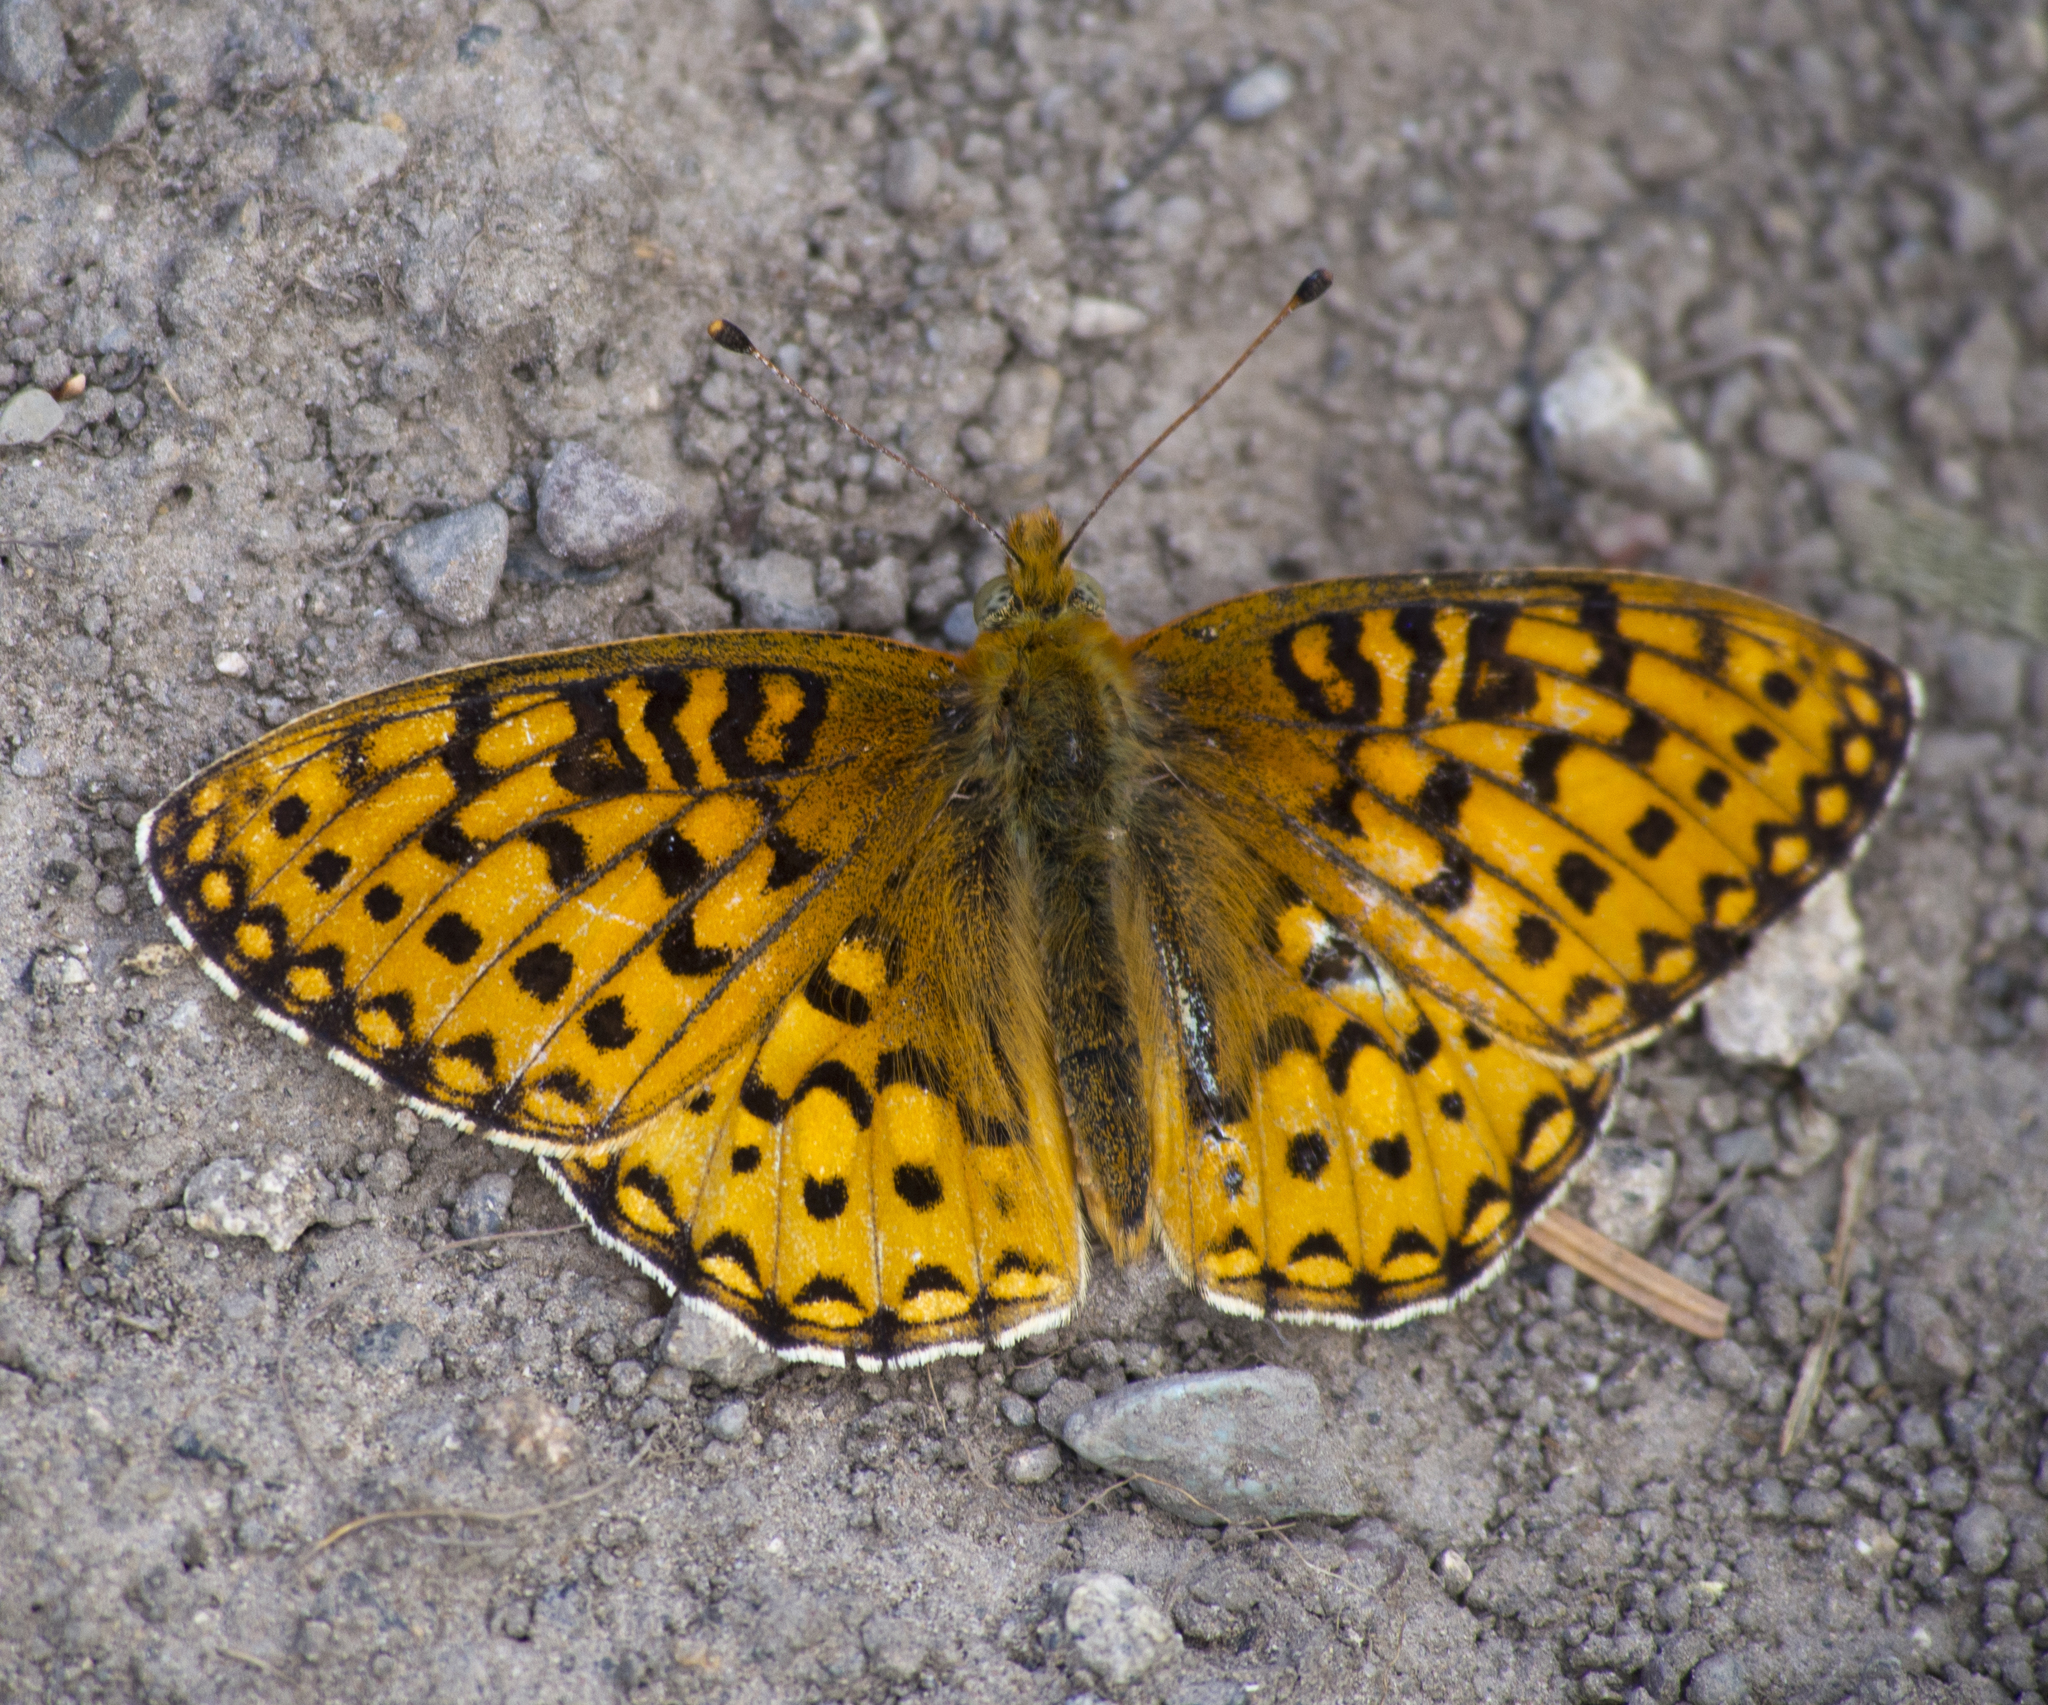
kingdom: Animalia
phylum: Arthropoda
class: Insecta
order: Lepidoptera
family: Nymphalidae
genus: Speyeria
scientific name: Speyeria mormonia
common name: Mormon fritillary
